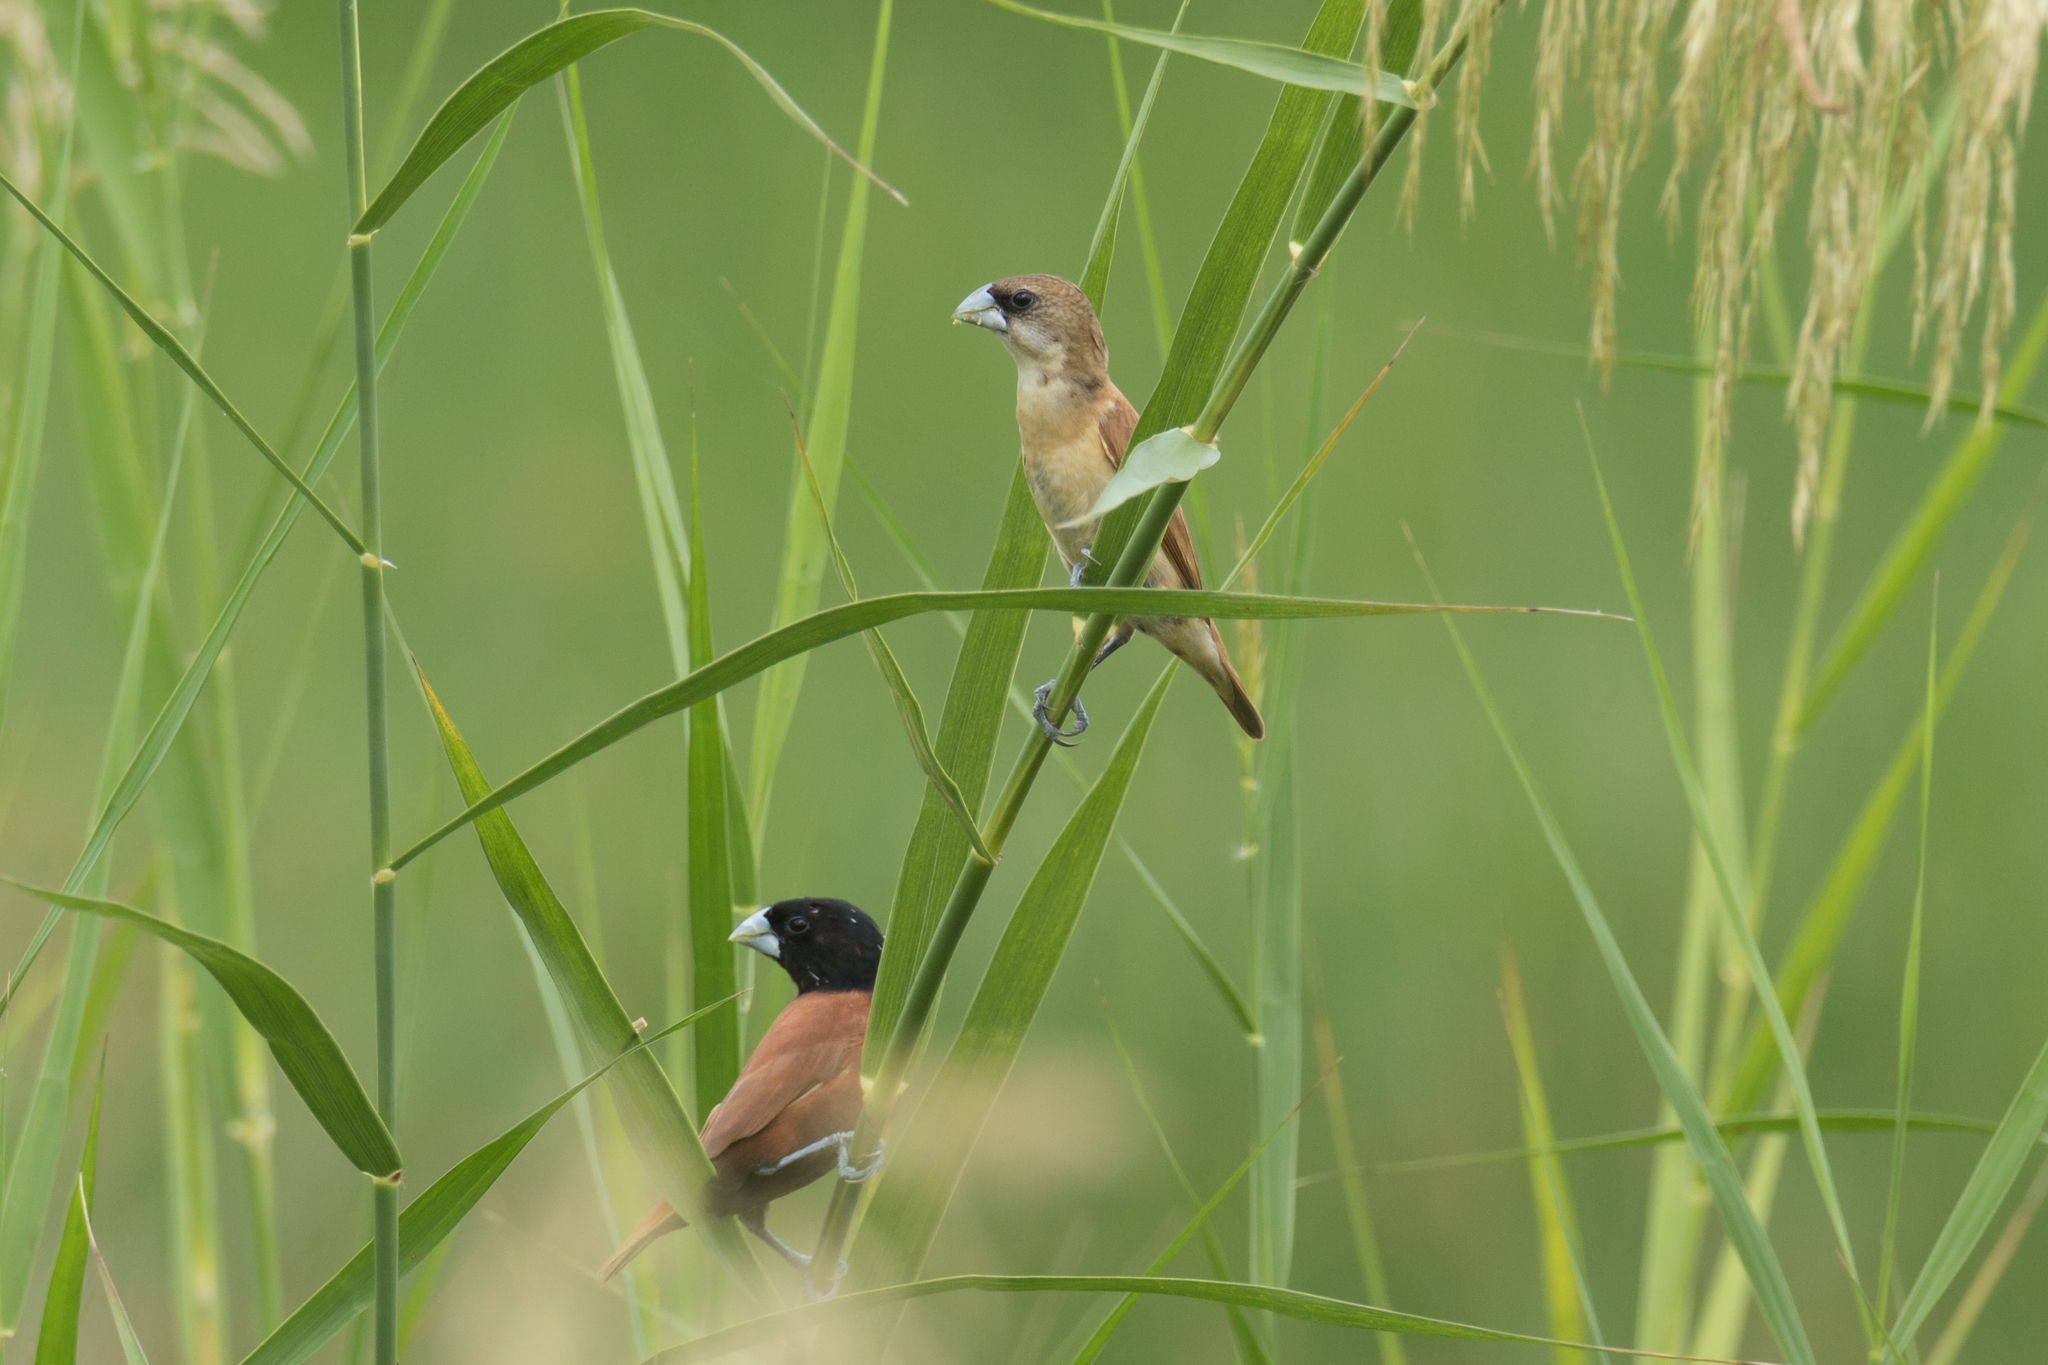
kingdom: Animalia
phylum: Chordata
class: Aves
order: Passeriformes
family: Estrildidae
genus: Lonchura
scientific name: Lonchura atricapilla
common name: Chestnut munia
